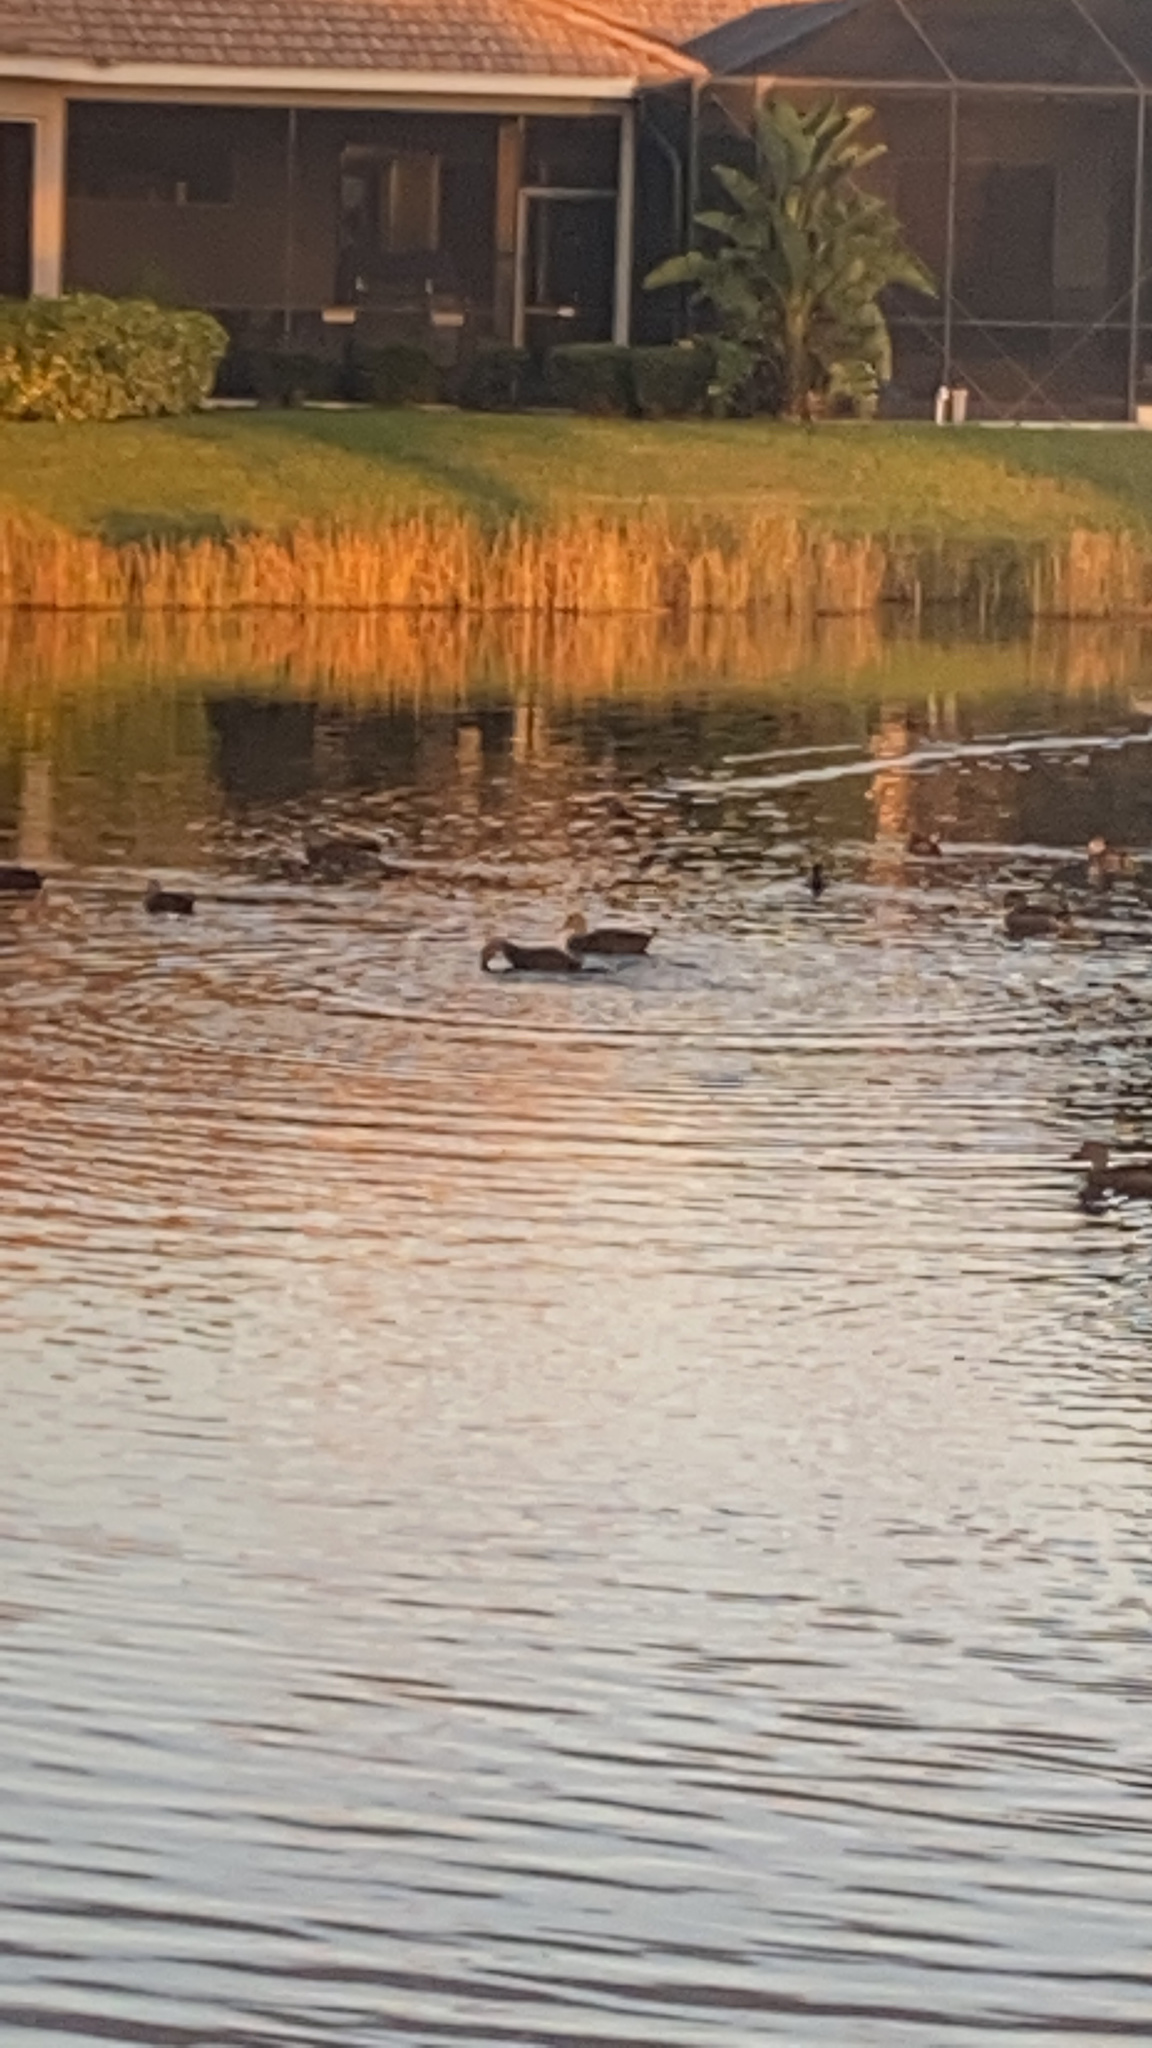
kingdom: Animalia
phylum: Chordata
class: Aves
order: Anseriformes
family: Anatidae
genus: Anas
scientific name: Anas
